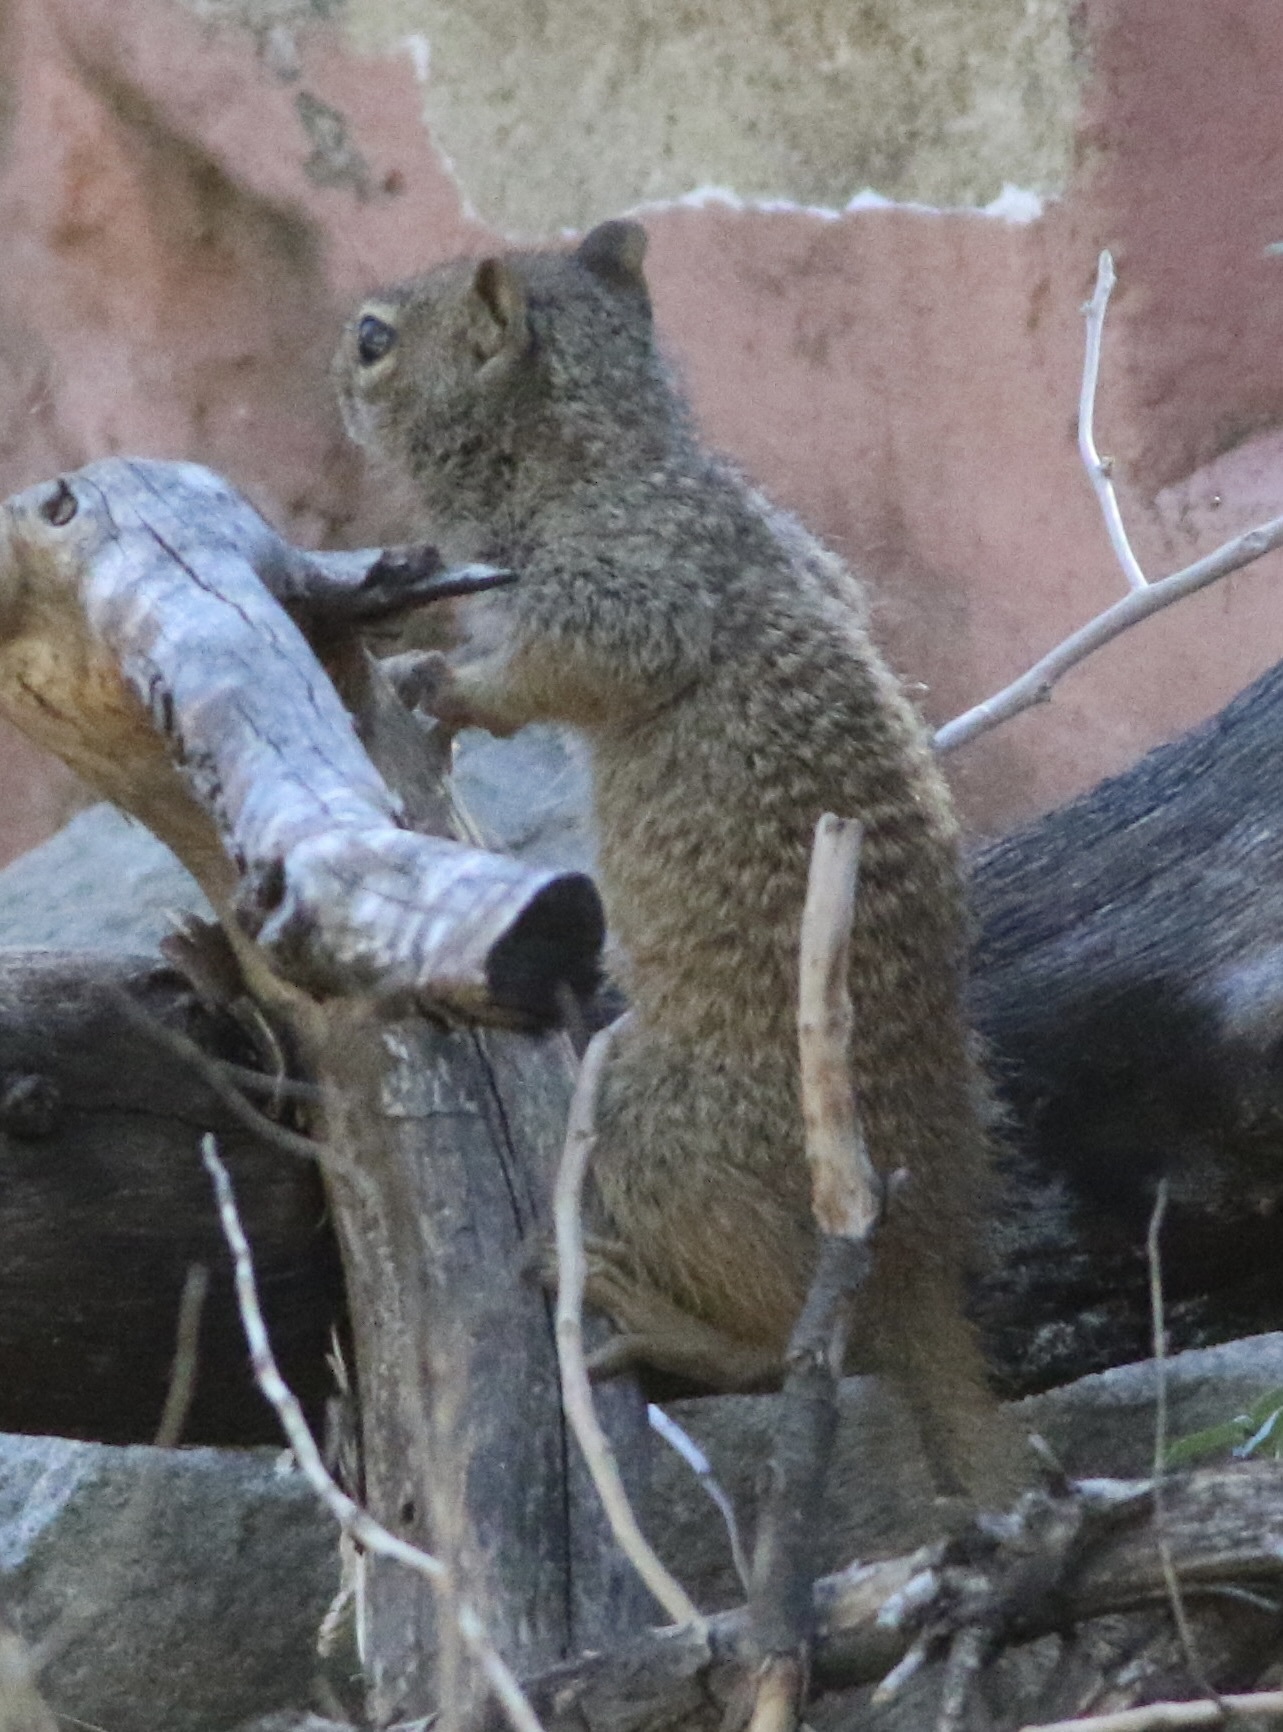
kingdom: Animalia
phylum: Chordata
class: Mammalia
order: Rodentia
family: Sciuridae
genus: Otospermophilus
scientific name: Otospermophilus variegatus
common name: Rock squirrel
